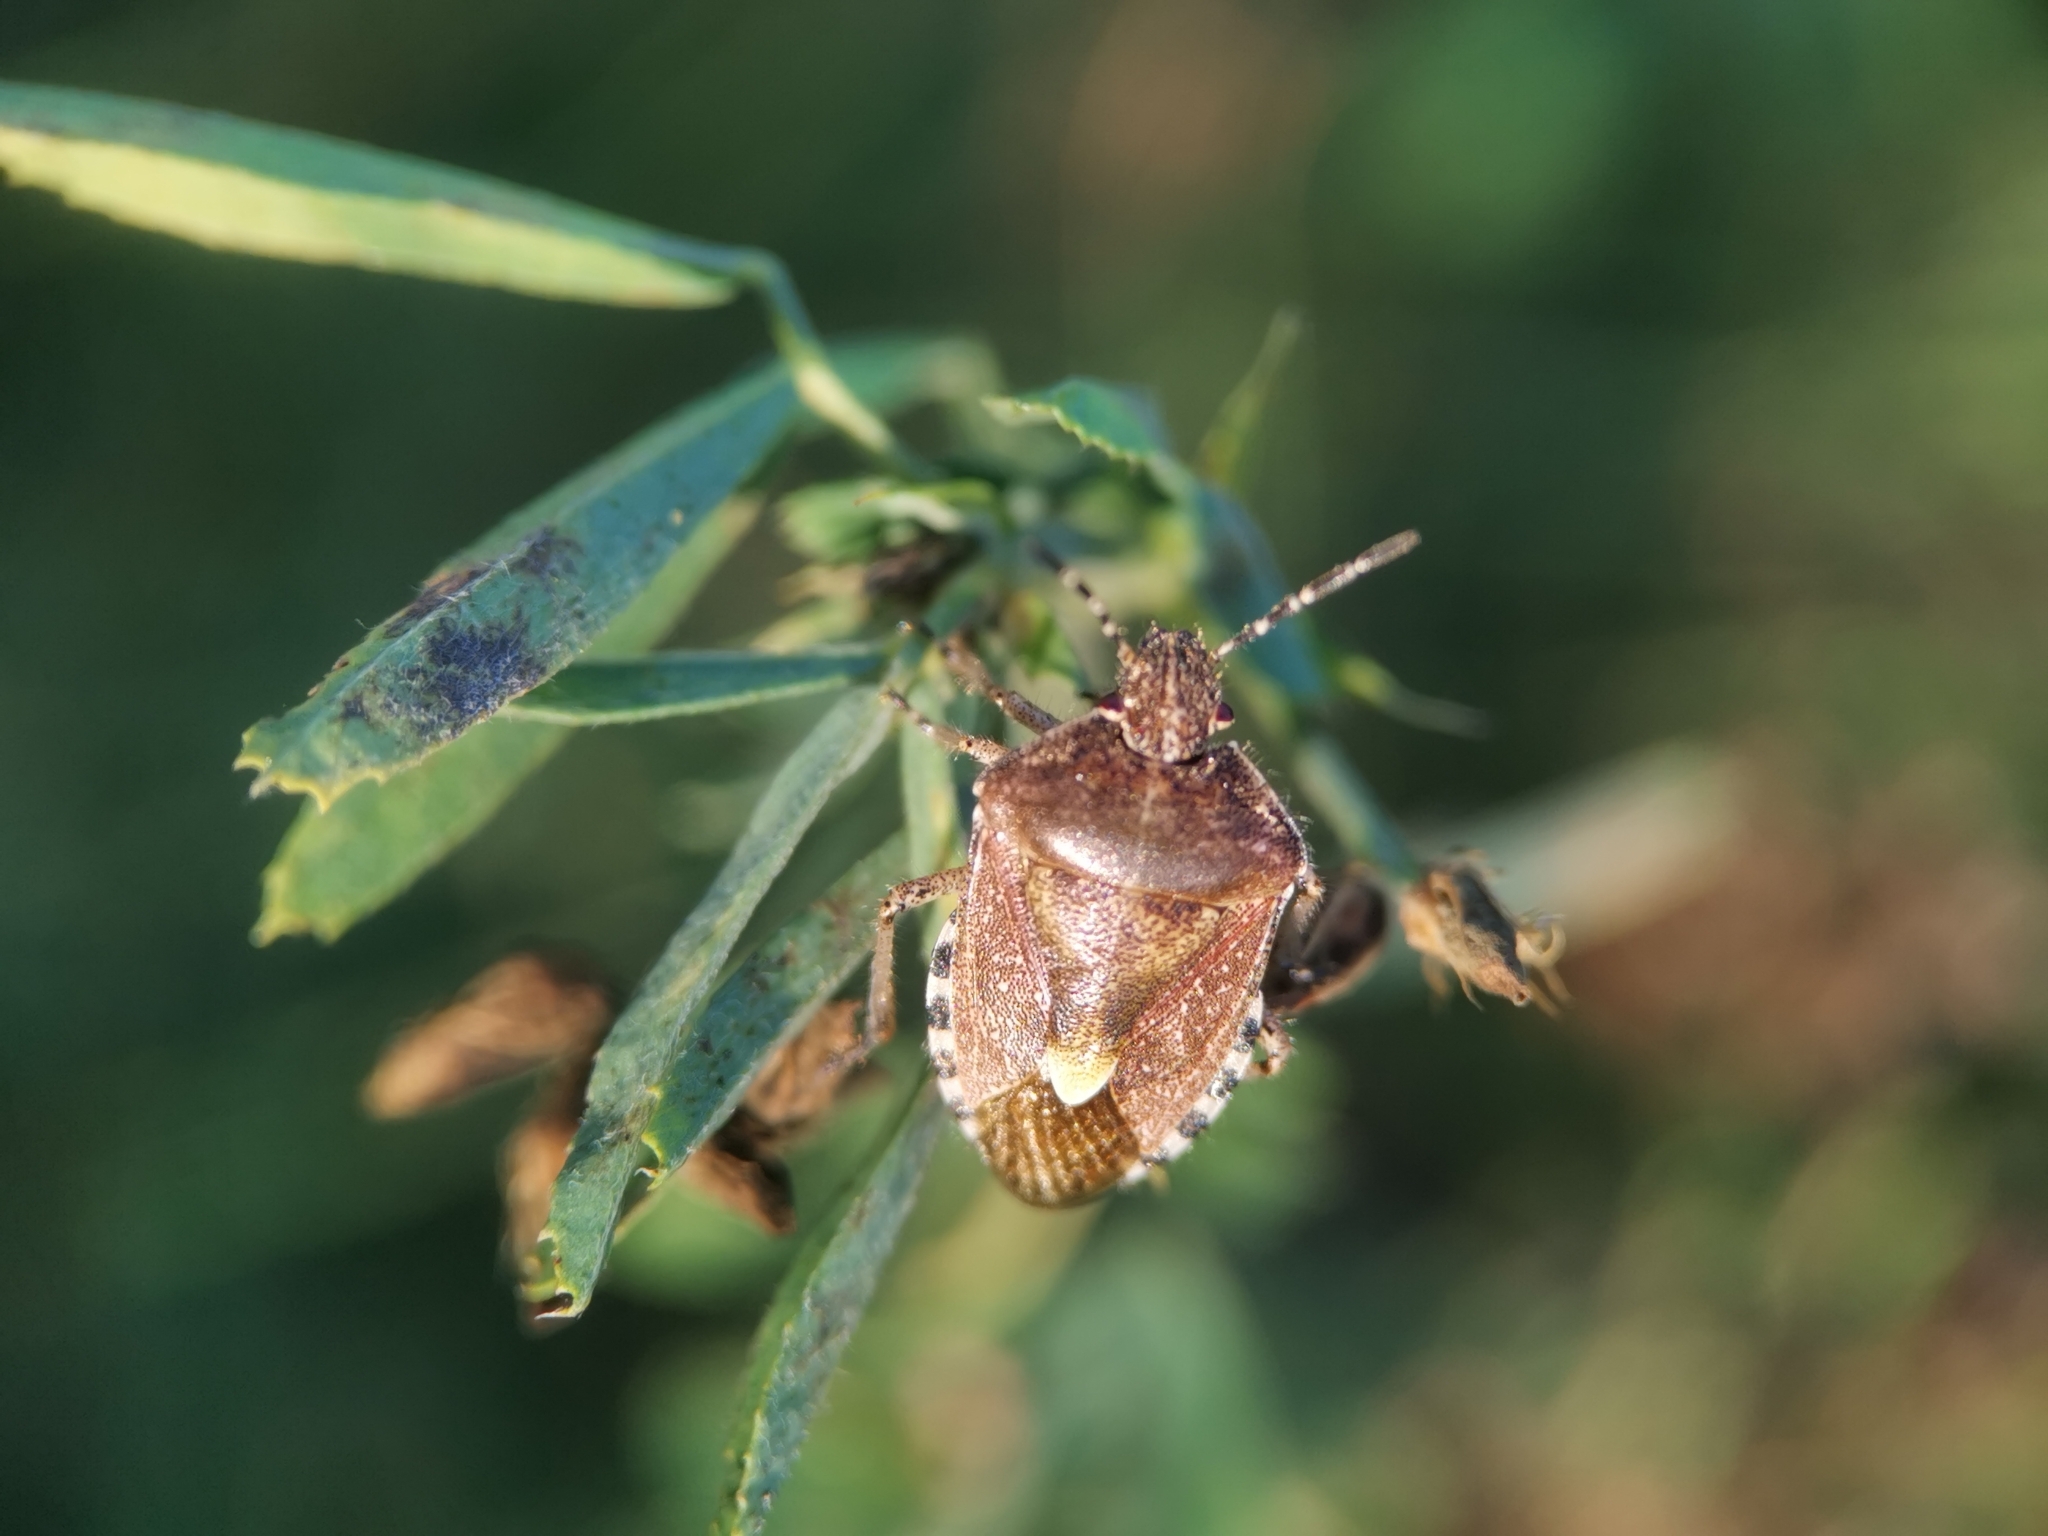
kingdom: Animalia
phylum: Arthropoda
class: Insecta
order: Hemiptera
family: Pentatomidae
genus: Dolycoris
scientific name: Dolycoris baccarum
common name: Sloe bug
